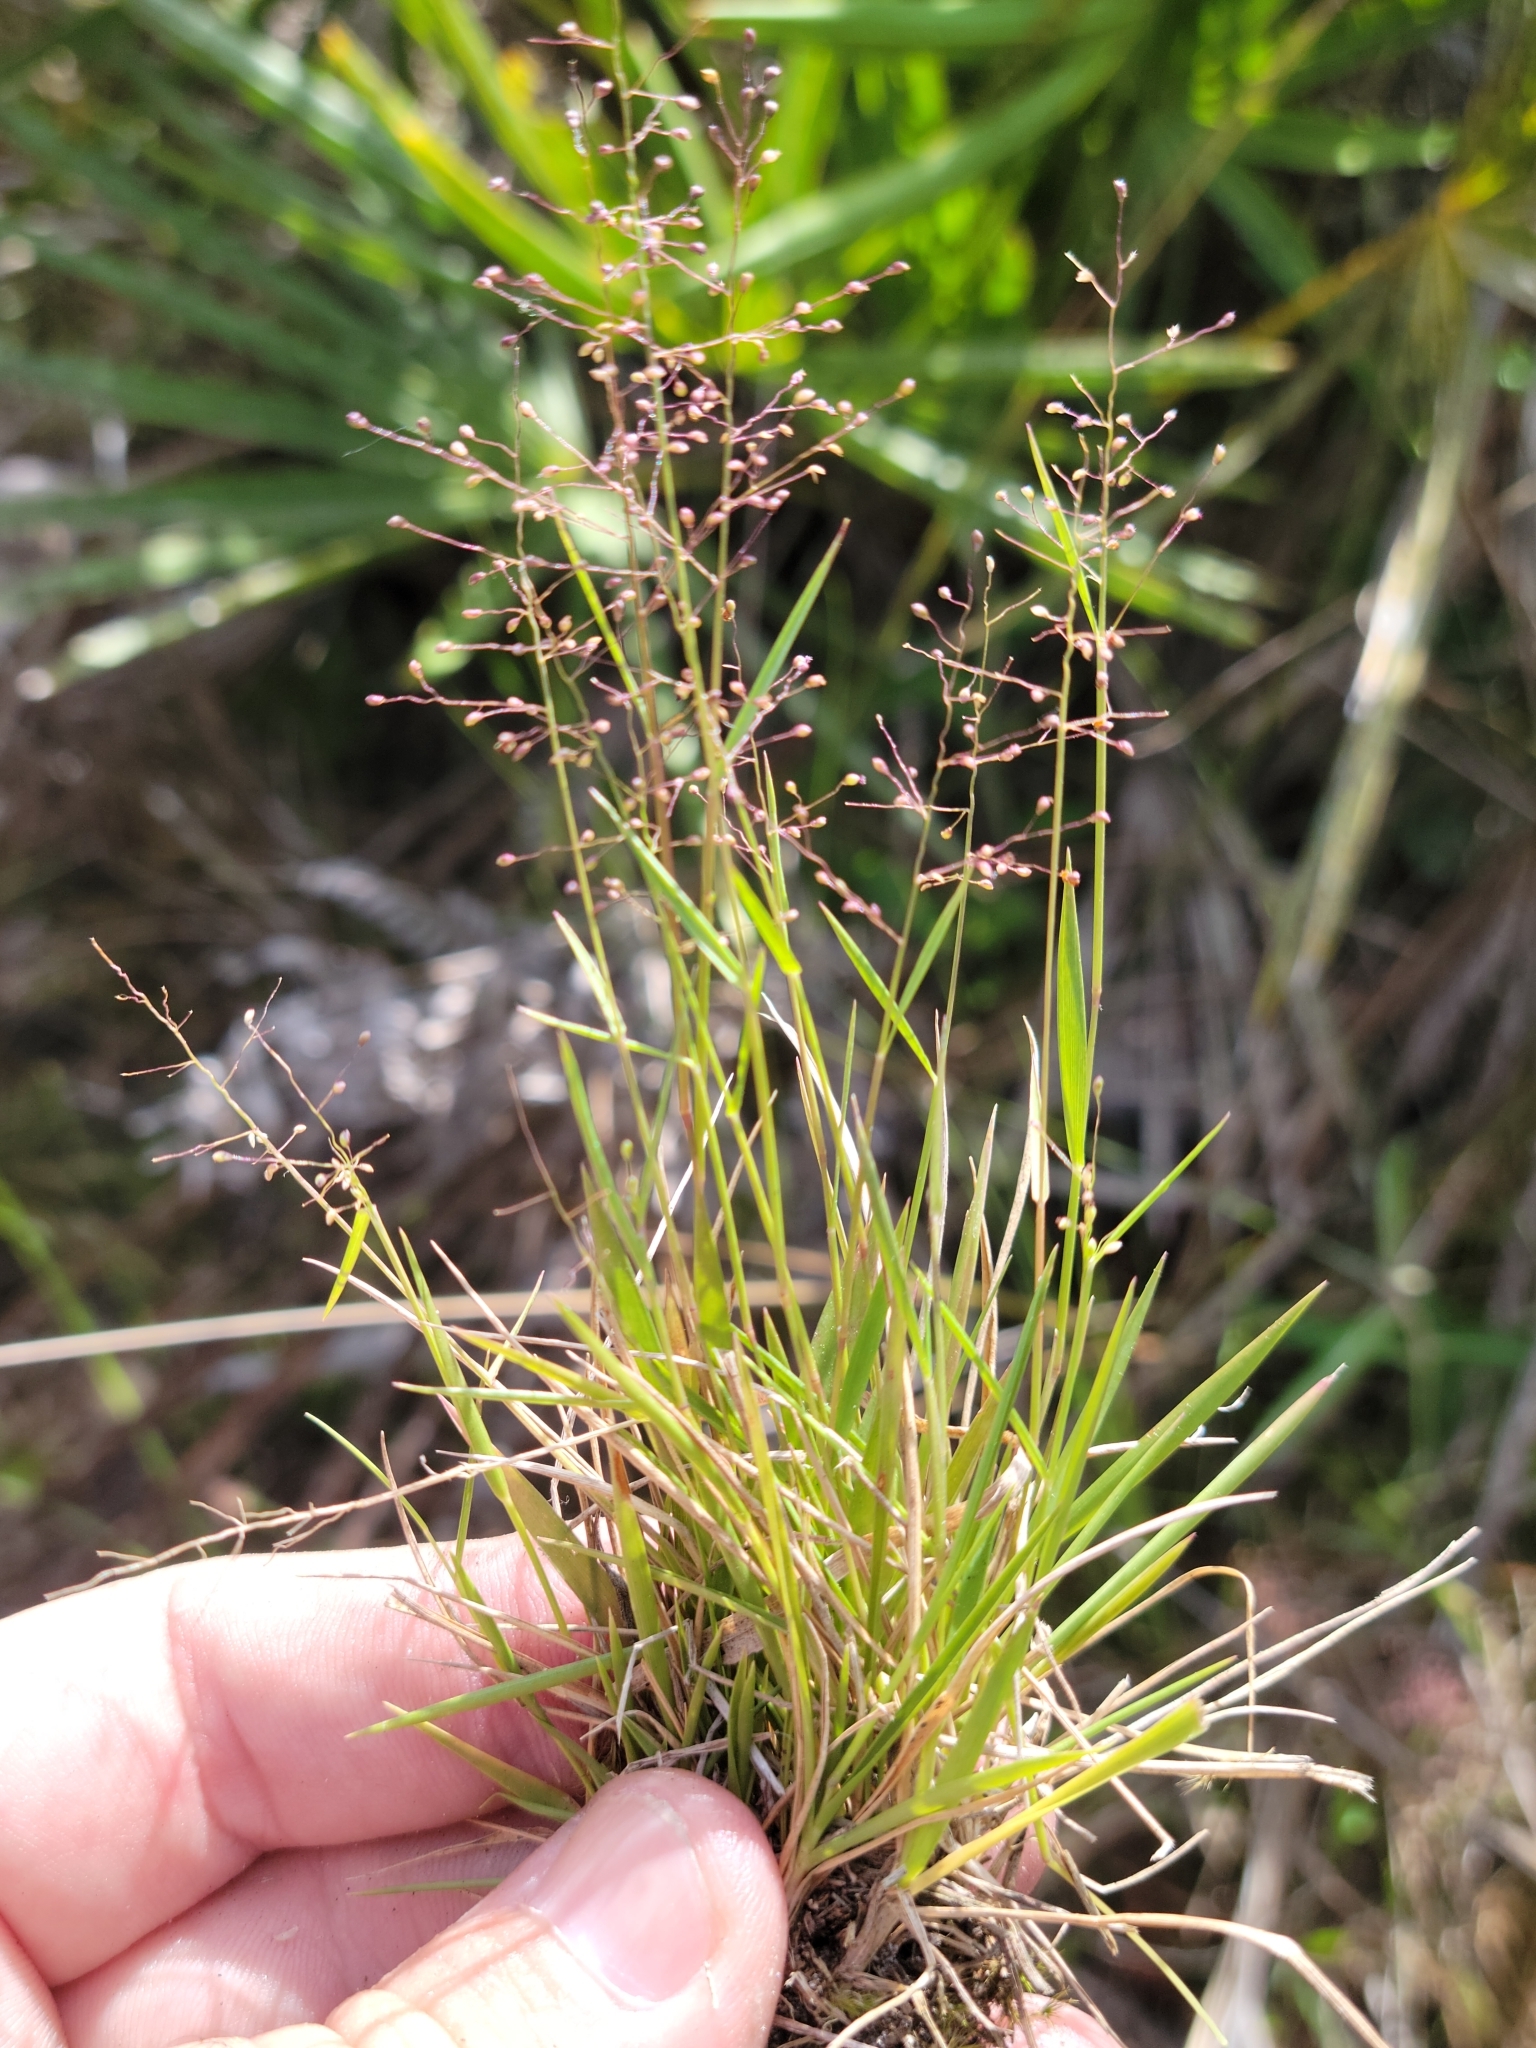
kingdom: Plantae
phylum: Tracheophyta
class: Liliopsida
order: Poales
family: Poaceae
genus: Dichanthelium
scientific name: Dichanthelium chamaelonche
